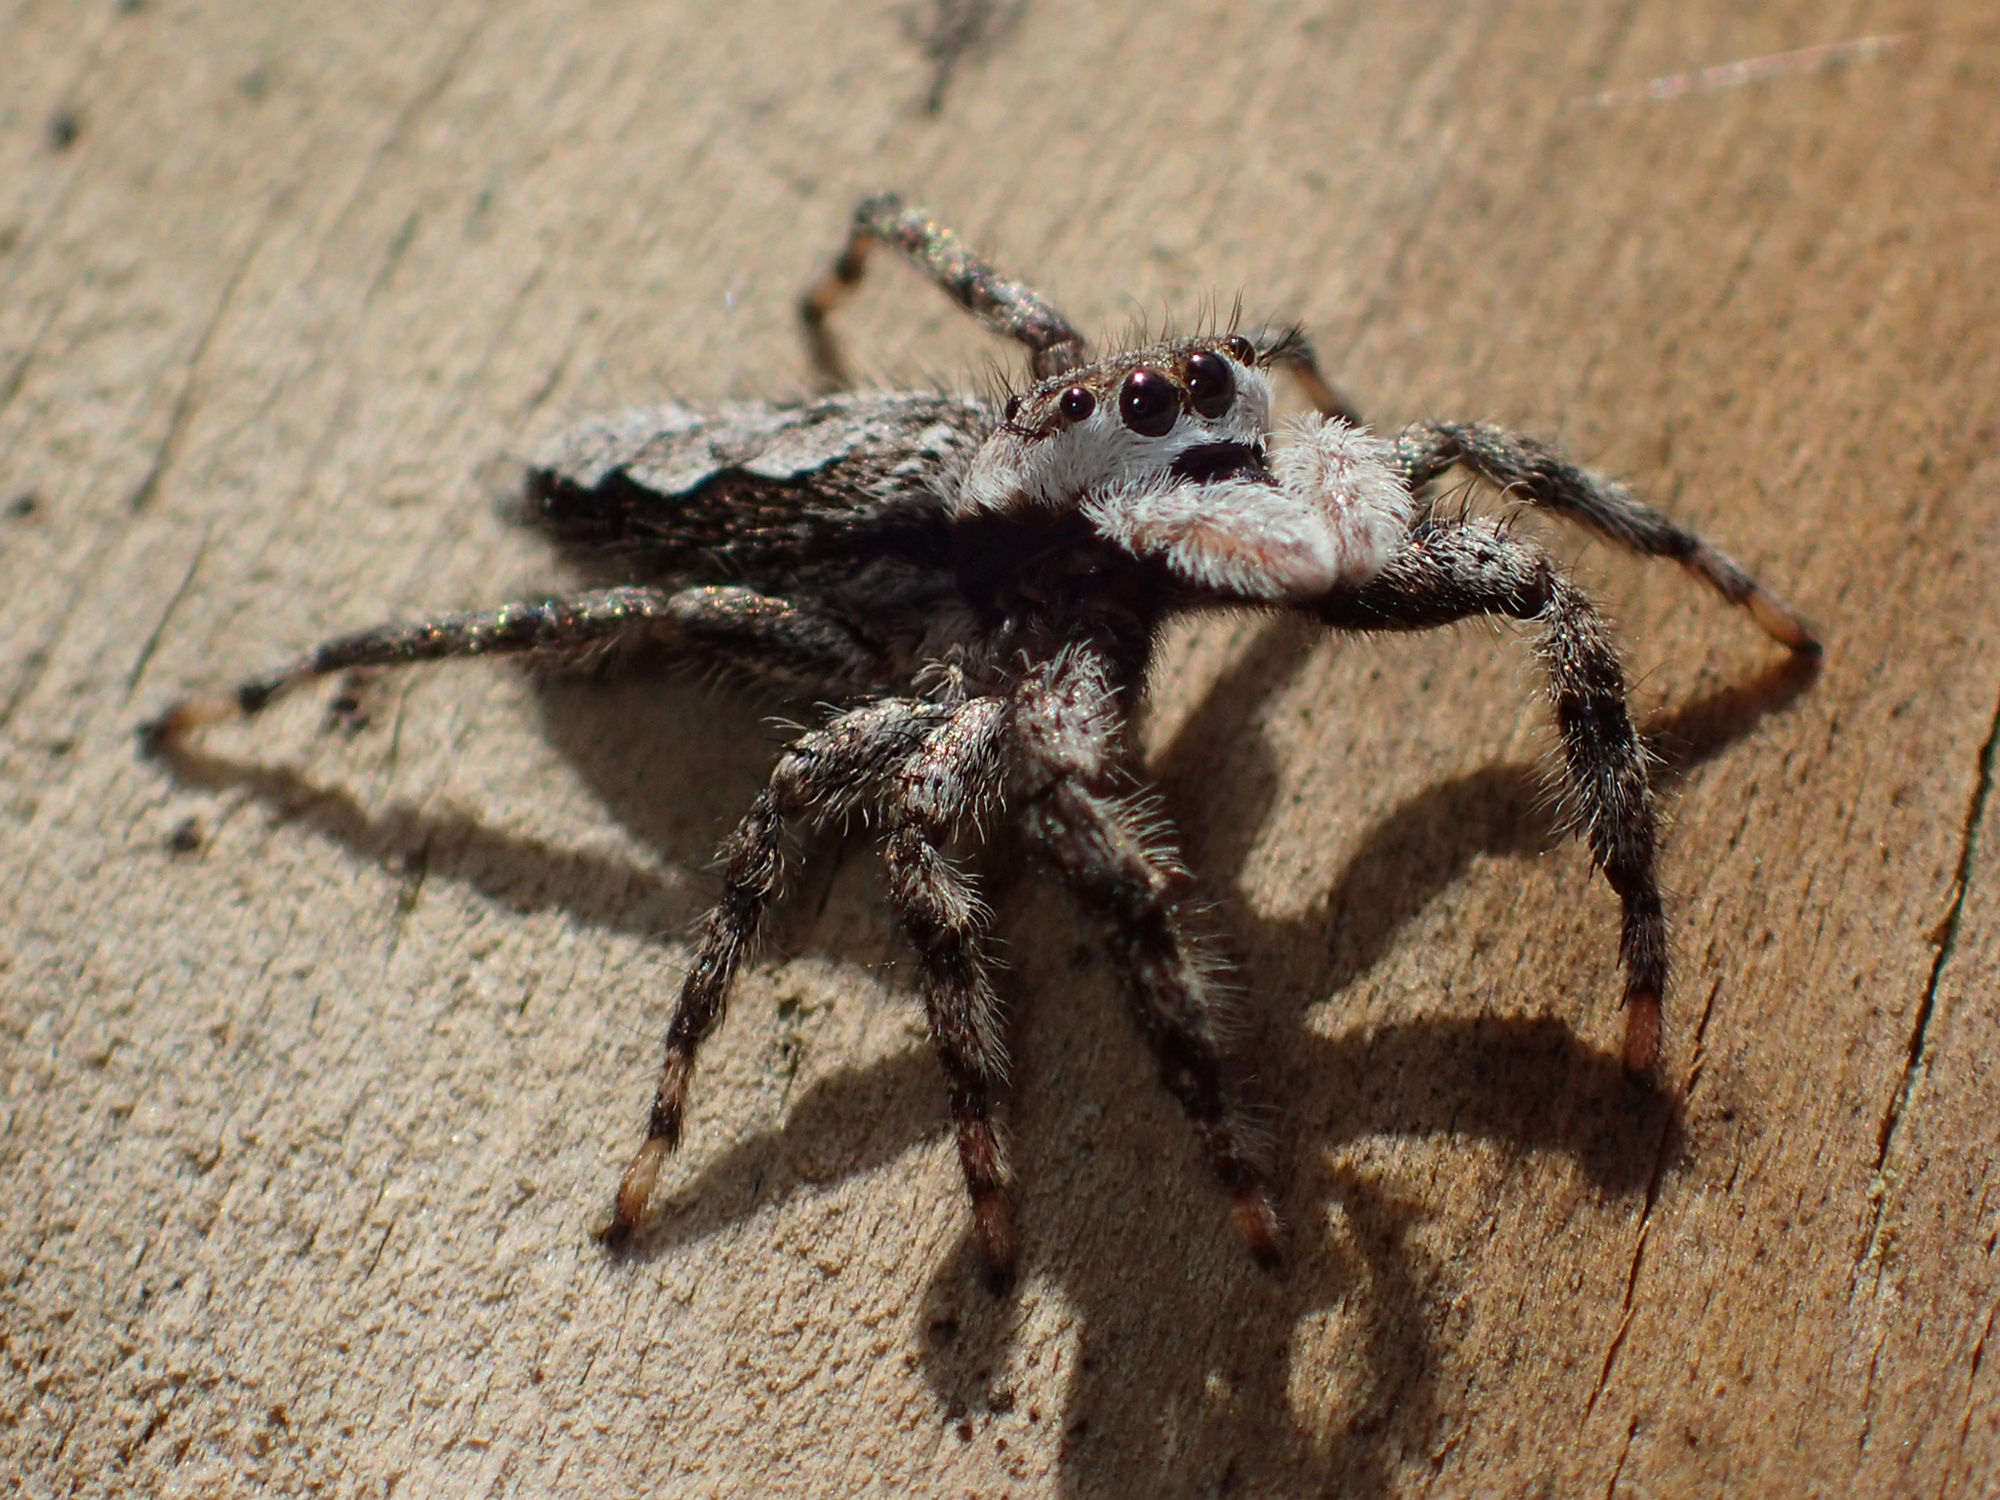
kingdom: Animalia
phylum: Arthropoda
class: Arachnida
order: Araneae
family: Salticidae
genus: Platycryptus
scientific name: Platycryptus undatus
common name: Tan jumping spider
